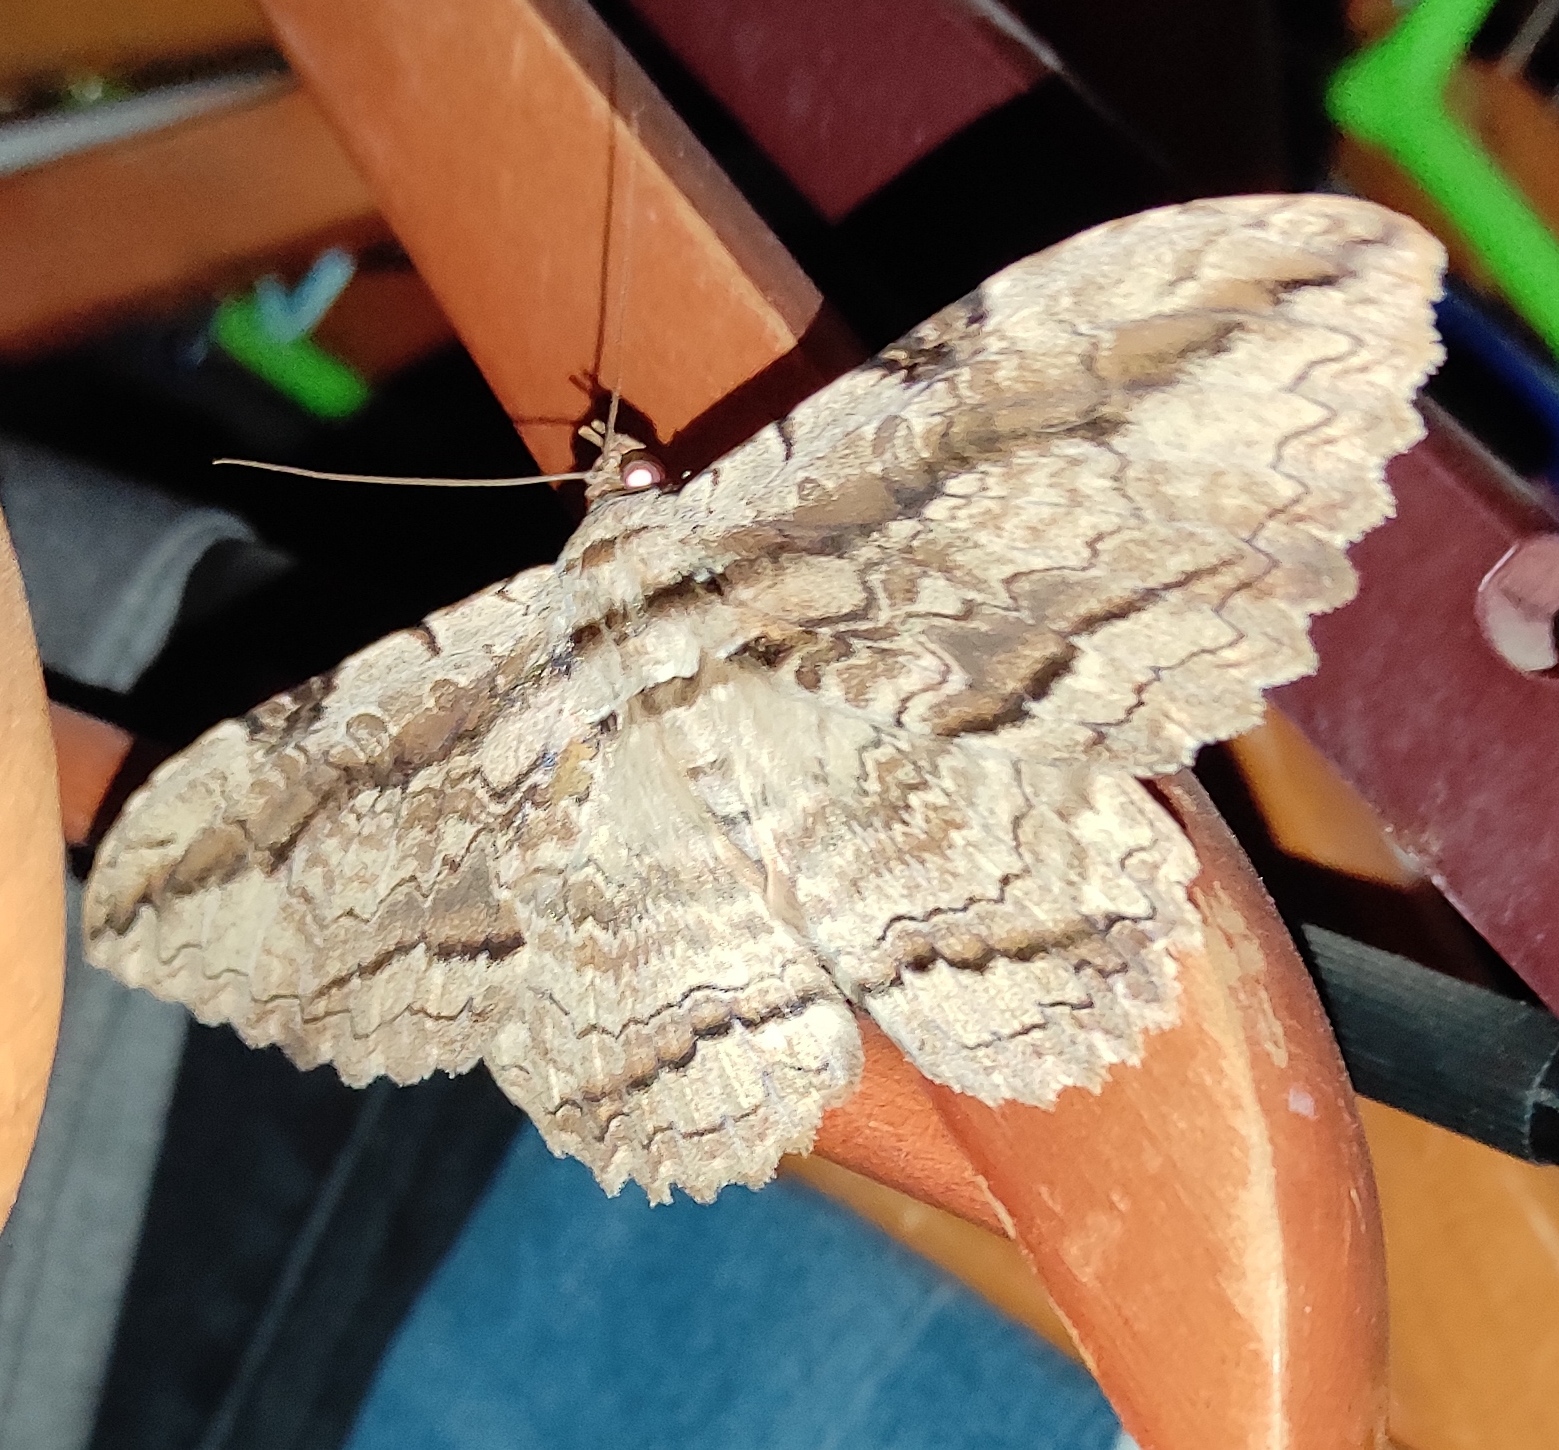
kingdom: Animalia
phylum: Arthropoda
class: Insecta
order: Lepidoptera
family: Erebidae
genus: Thysania
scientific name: Thysania zenobia
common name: Owl moth
